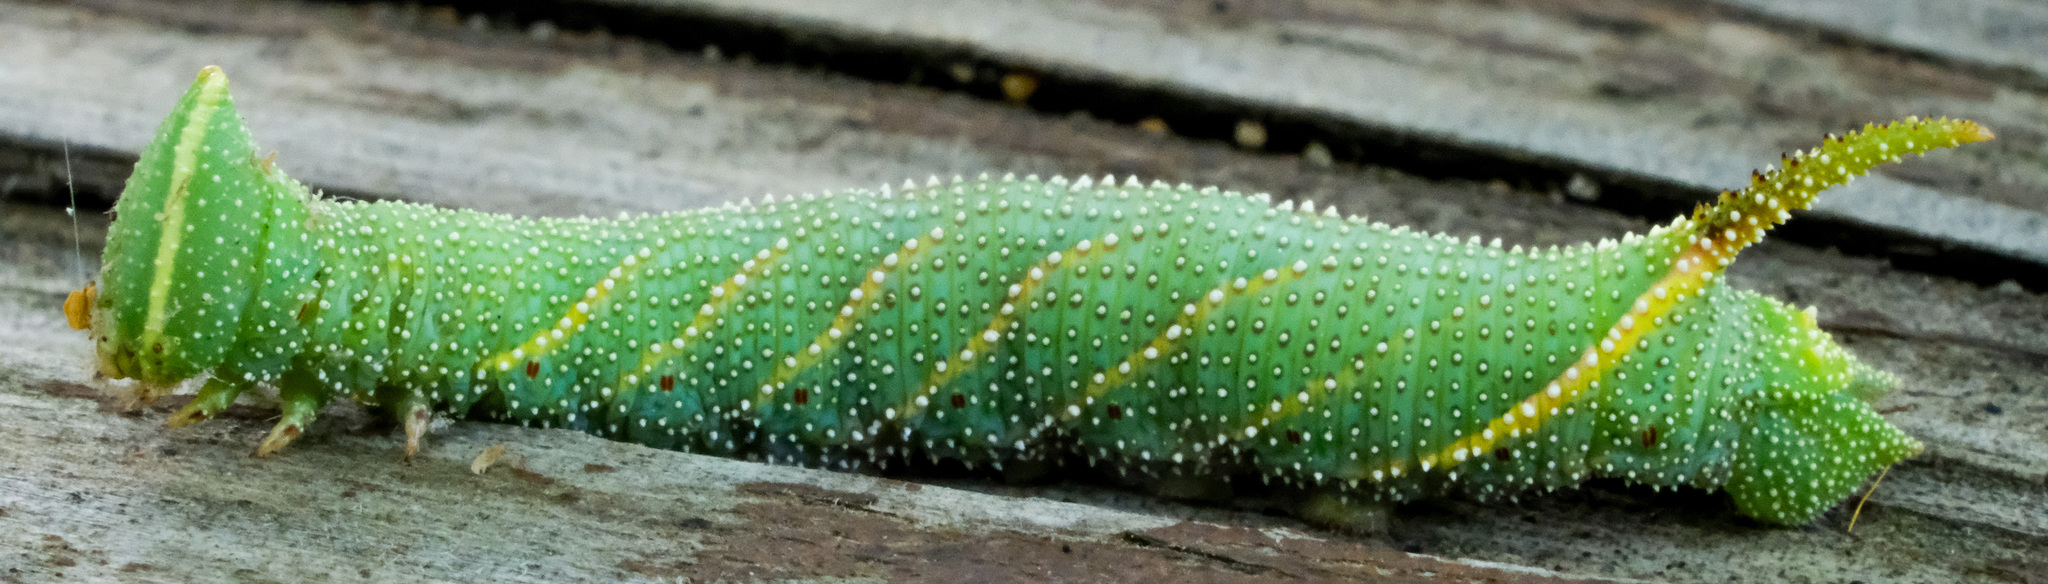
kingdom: Animalia
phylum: Arthropoda
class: Insecta
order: Lepidoptera
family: Sphingidae
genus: Amorpha
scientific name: Amorpha juglandis
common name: Walnut sphinx
